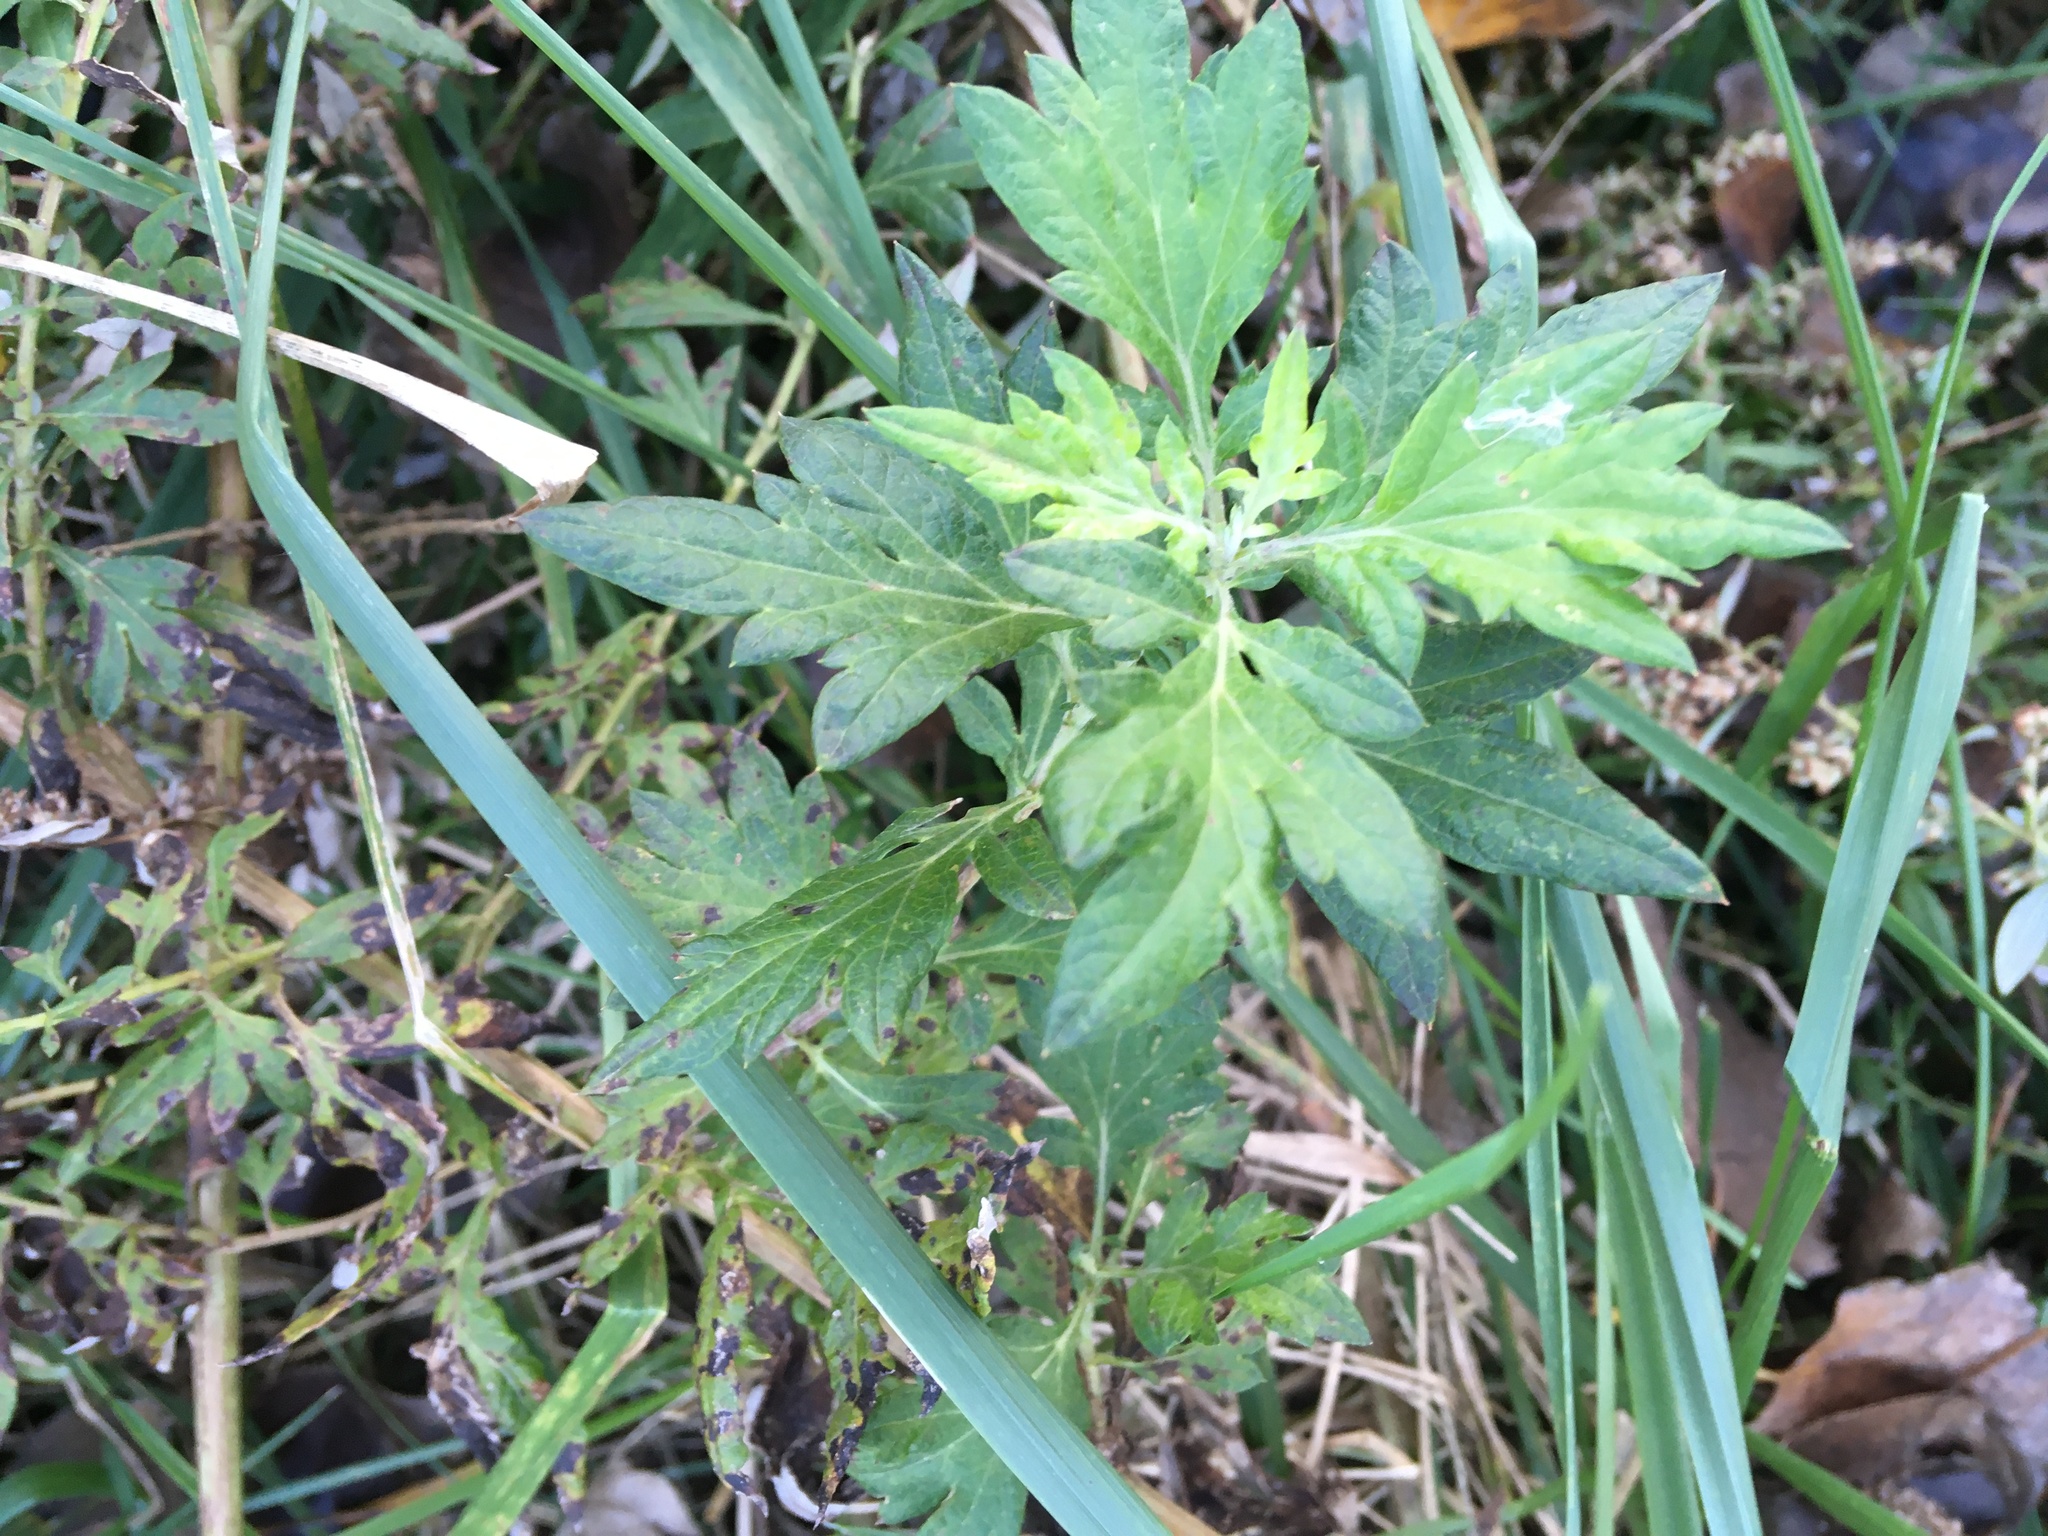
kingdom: Plantae
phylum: Tracheophyta
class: Magnoliopsida
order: Asterales
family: Asteraceae
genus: Artemisia
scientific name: Artemisia vulgaris
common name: Mugwort
